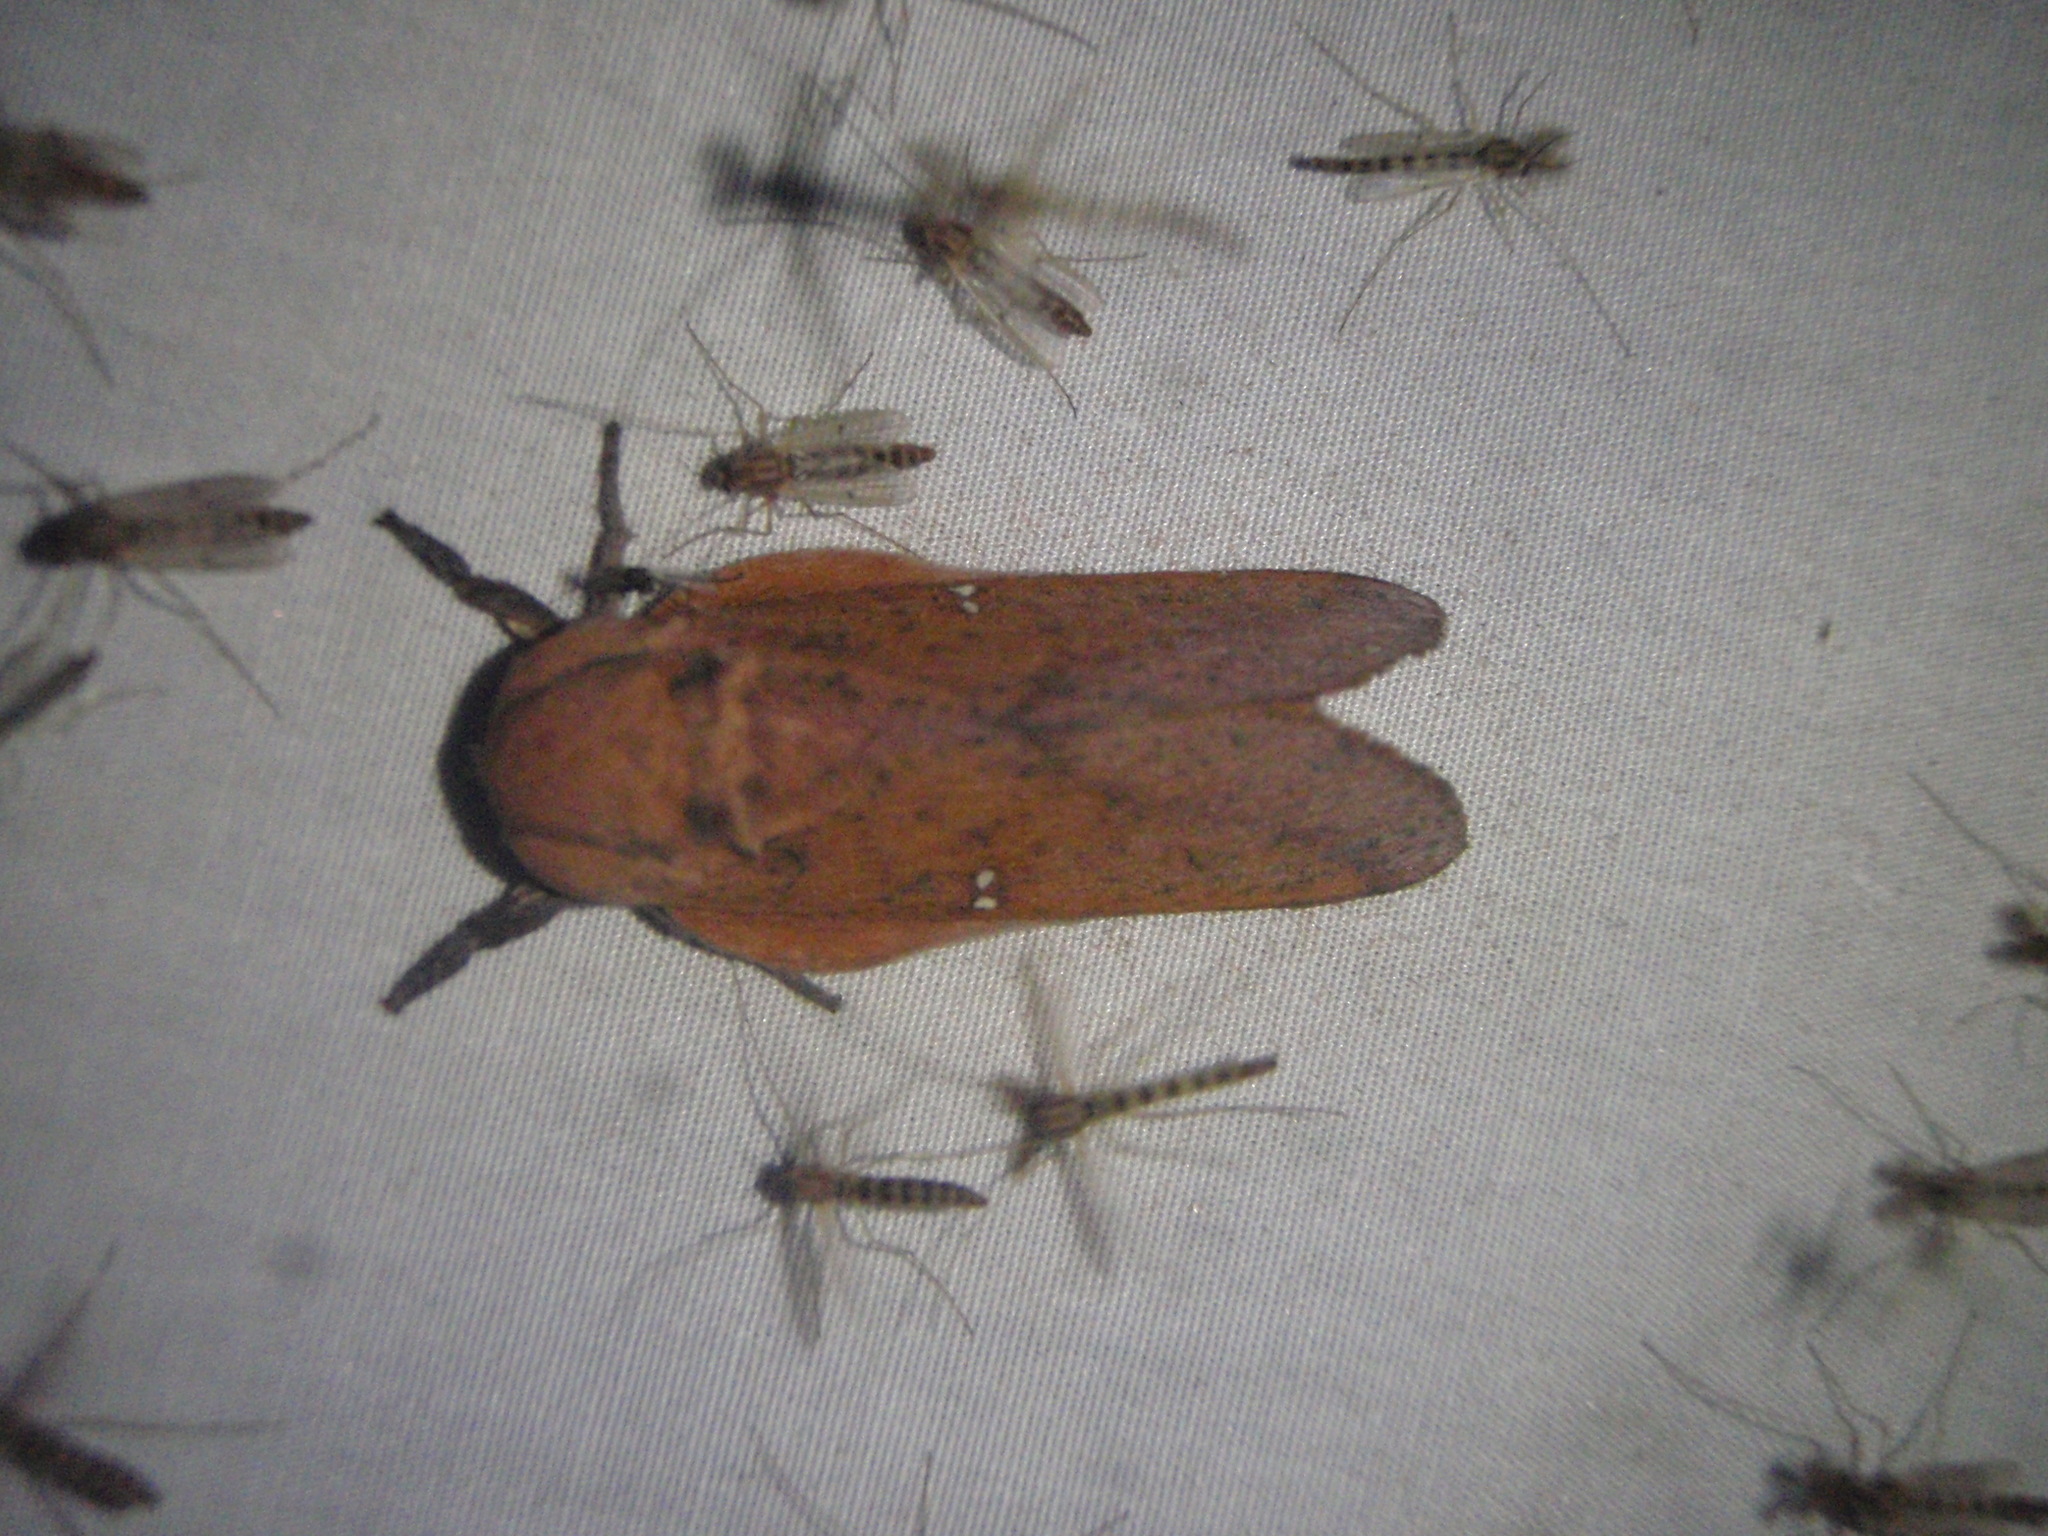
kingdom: Animalia
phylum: Arthropoda
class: Insecta
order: Lepidoptera
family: Saturniidae
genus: Syssphinx
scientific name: Syssphinx bicolor
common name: Honey locust moth
